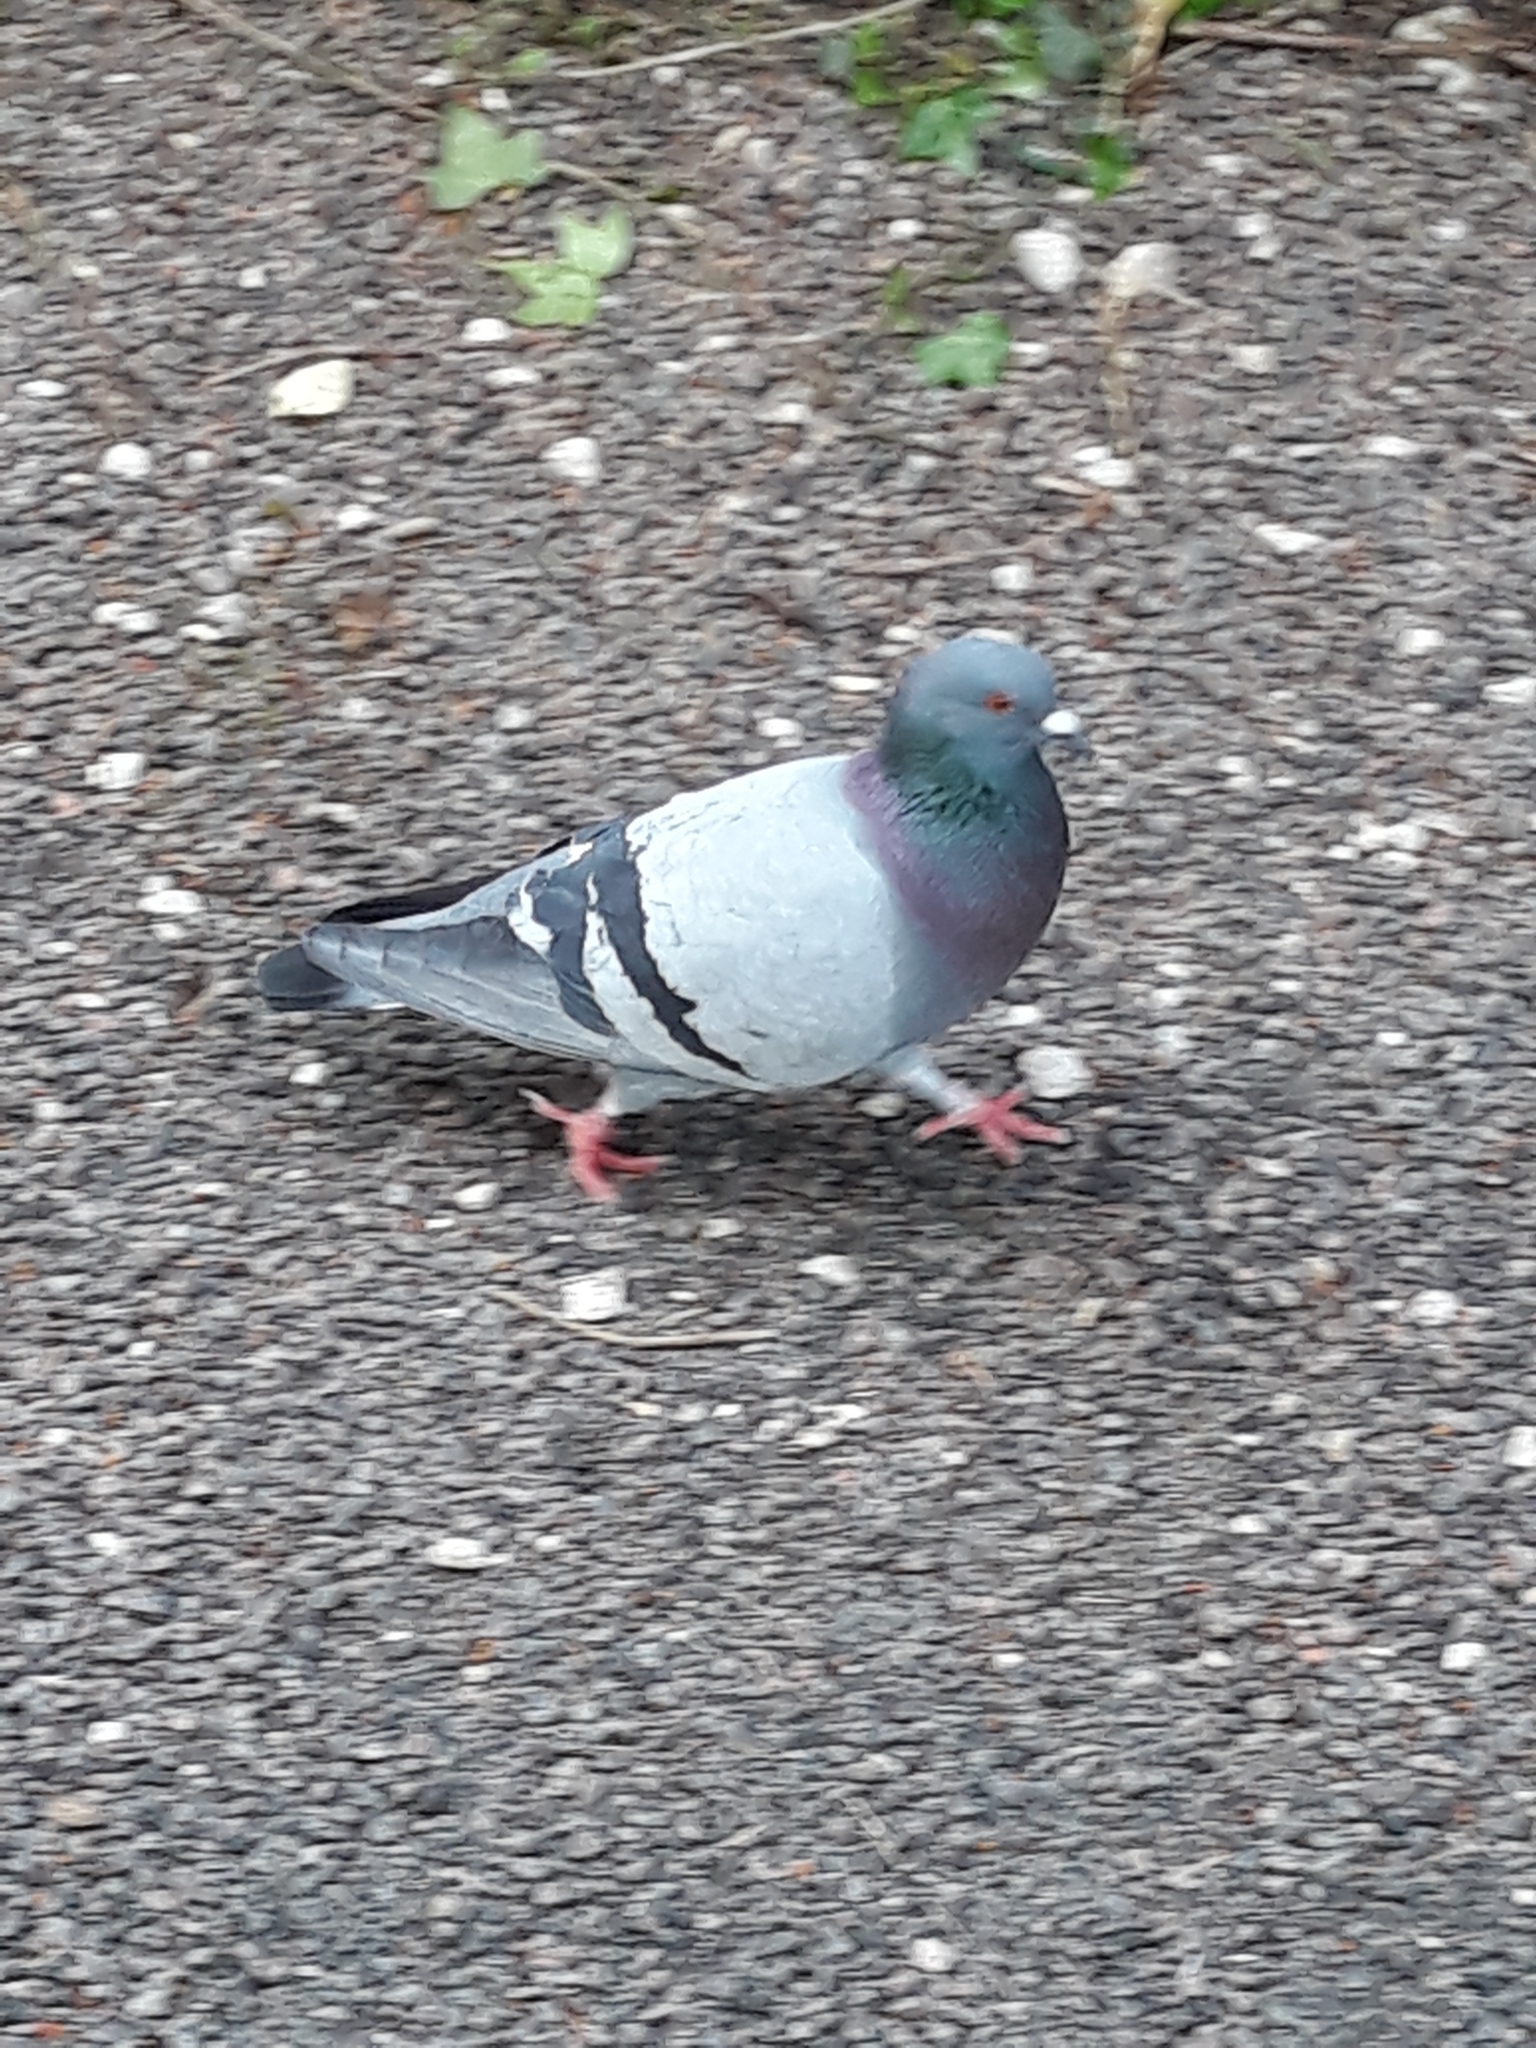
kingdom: Animalia
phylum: Chordata
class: Aves
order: Columbiformes
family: Columbidae
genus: Columba
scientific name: Columba livia
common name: Rock pigeon
